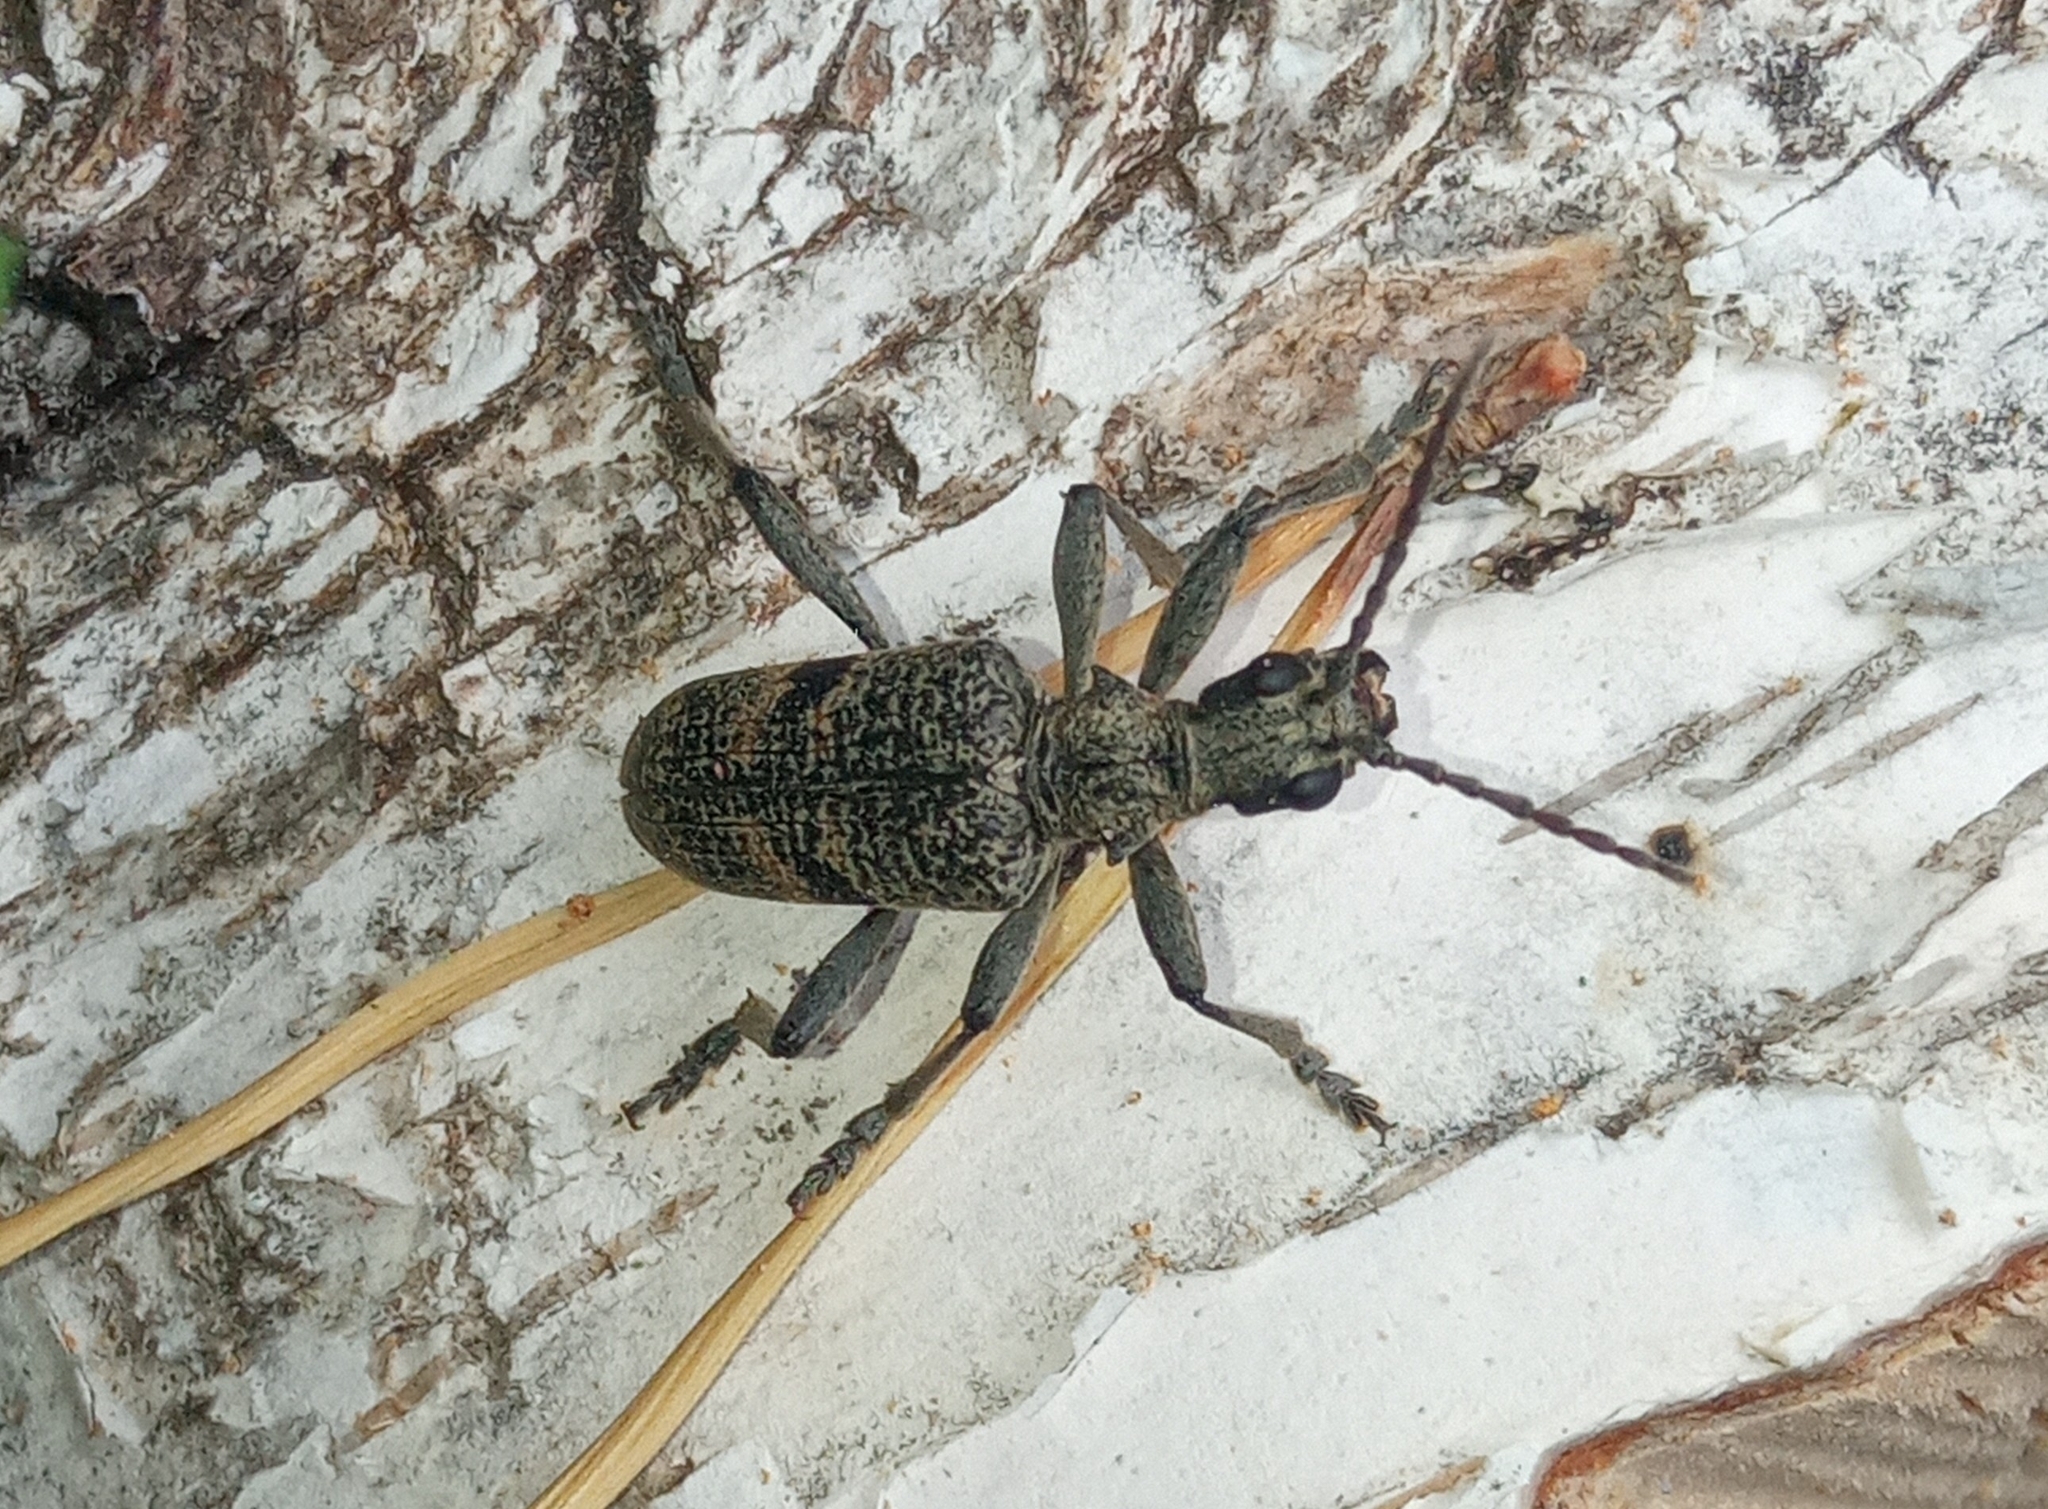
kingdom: Animalia
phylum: Arthropoda
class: Insecta
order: Coleoptera
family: Cerambycidae
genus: Rhagium
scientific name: Rhagium mordax
